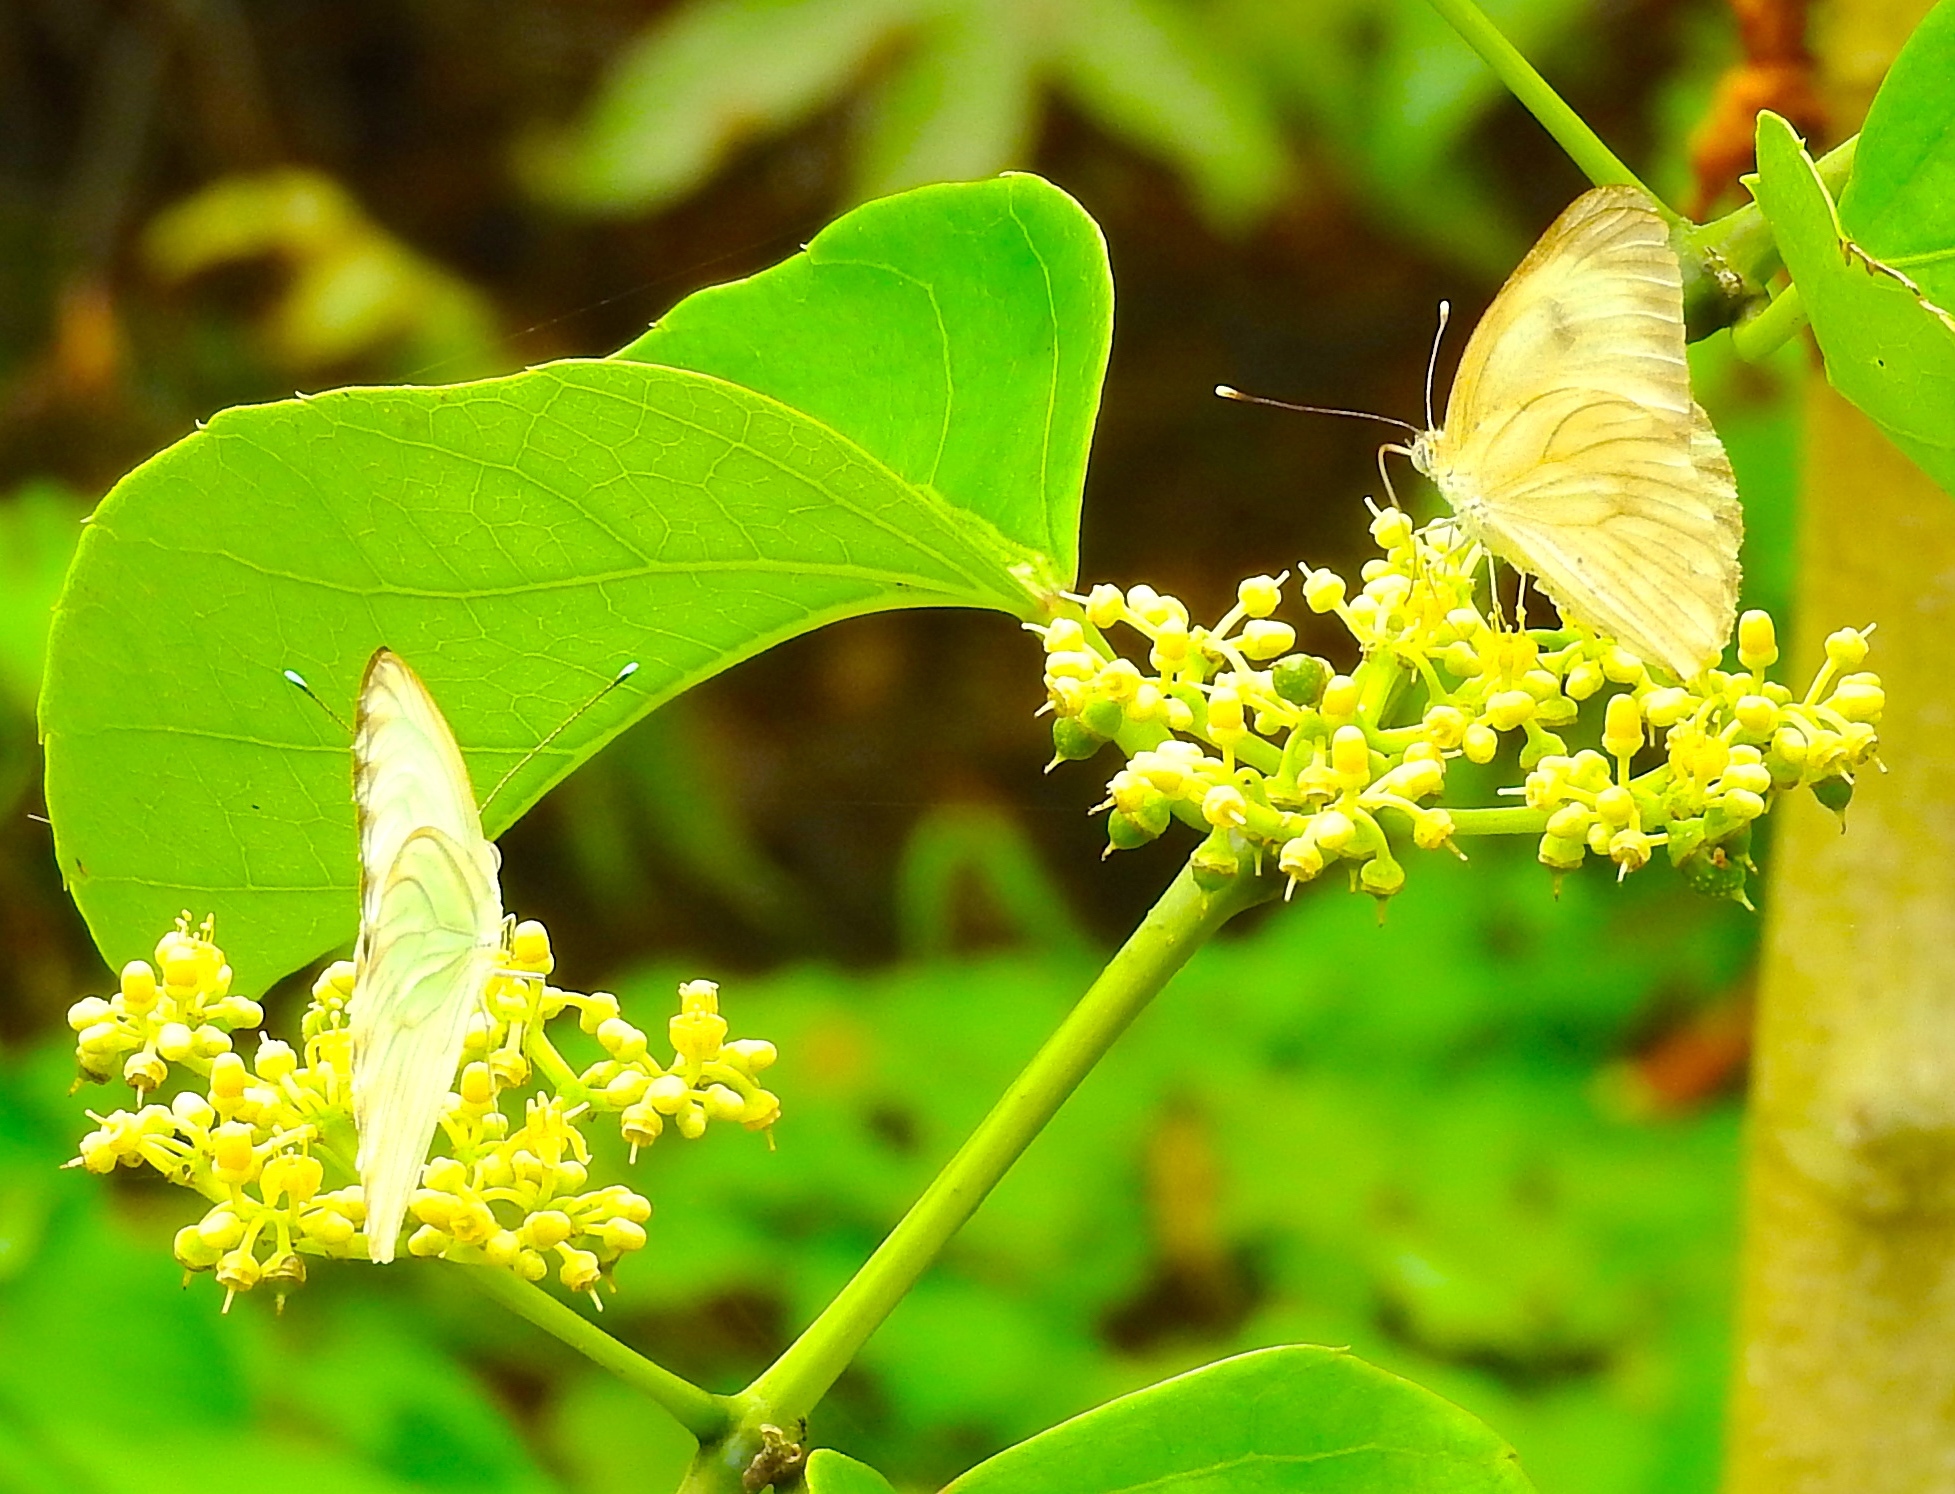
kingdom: Animalia
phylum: Arthropoda
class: Insecta
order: Lepidoptera
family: Pieridae
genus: Ascia
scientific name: Ascia monuste
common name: Great southern white
